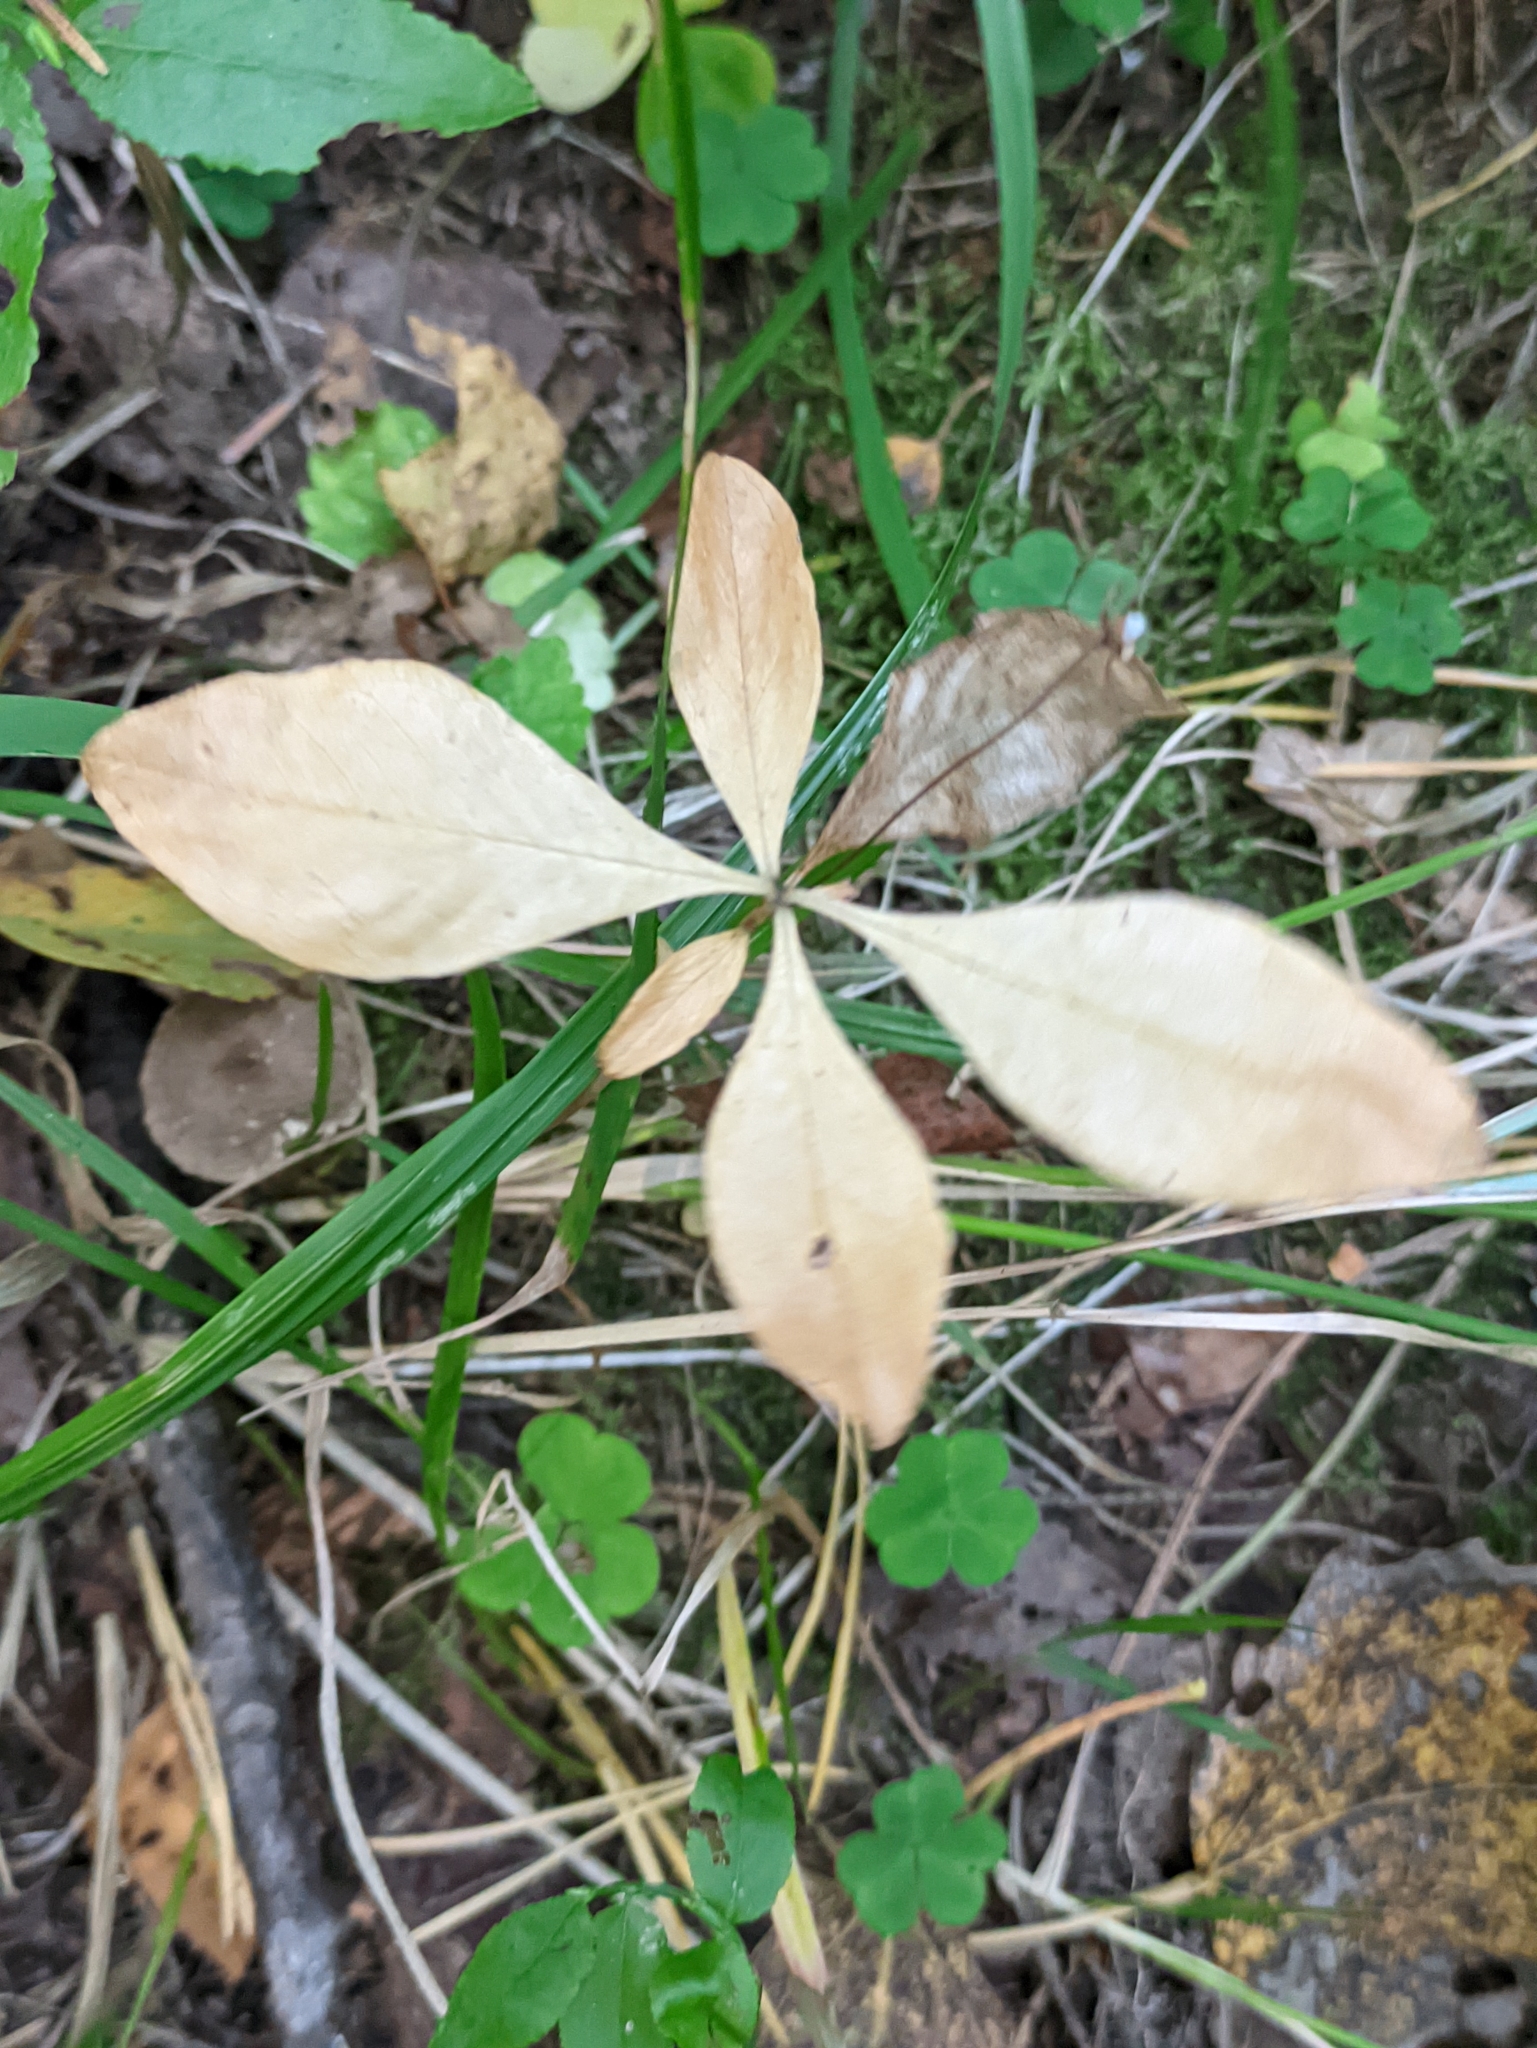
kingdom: Plantae
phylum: Tracheophyta
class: Magnoliopsida
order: Ericales
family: Primulaceae
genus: Lysimachia
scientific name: Lysimachia europaea
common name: Arctic starflower
